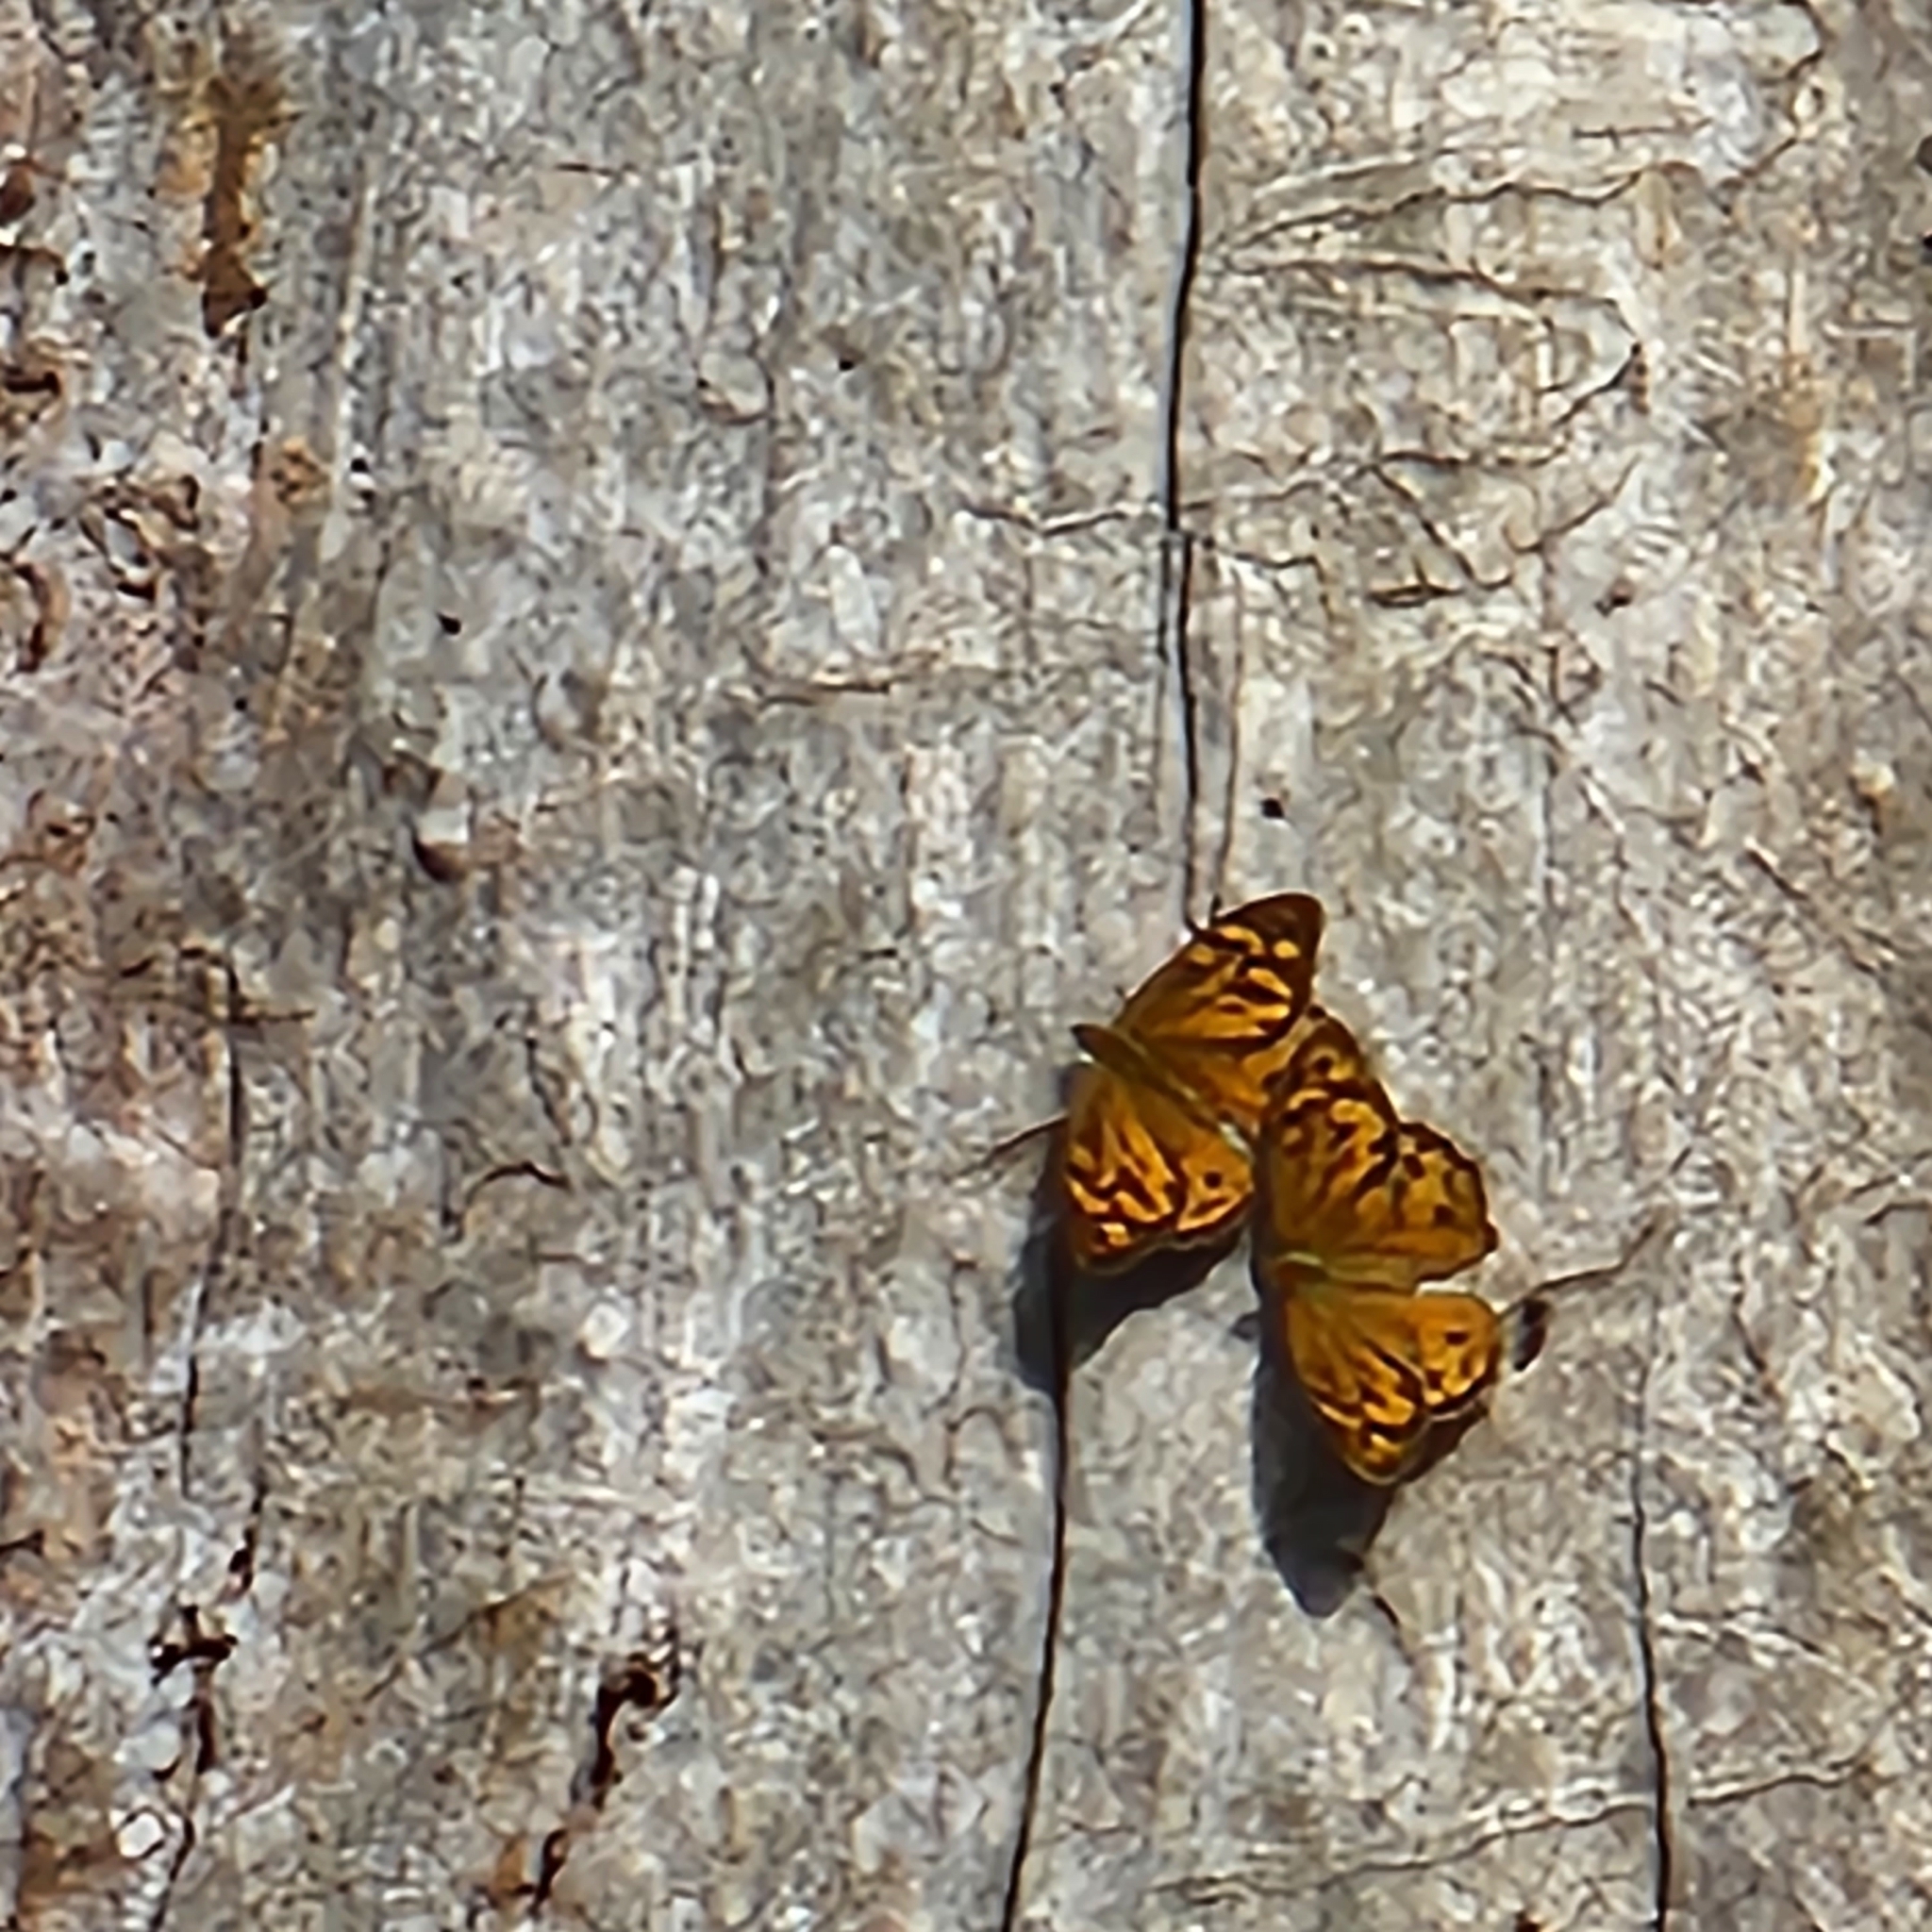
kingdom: Animalia
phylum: Arthropoda
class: Insecta
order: Lepidoptera
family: Nymphalidae
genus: Heteronympha
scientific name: Heteronympha merope
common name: Common brown
